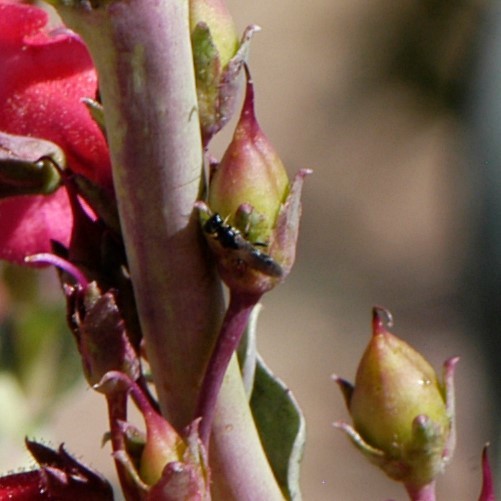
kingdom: Animalia
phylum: Arthropoda
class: Insecta
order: Hymenoptera
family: Pemphredonidae
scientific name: Pemphredonidae
